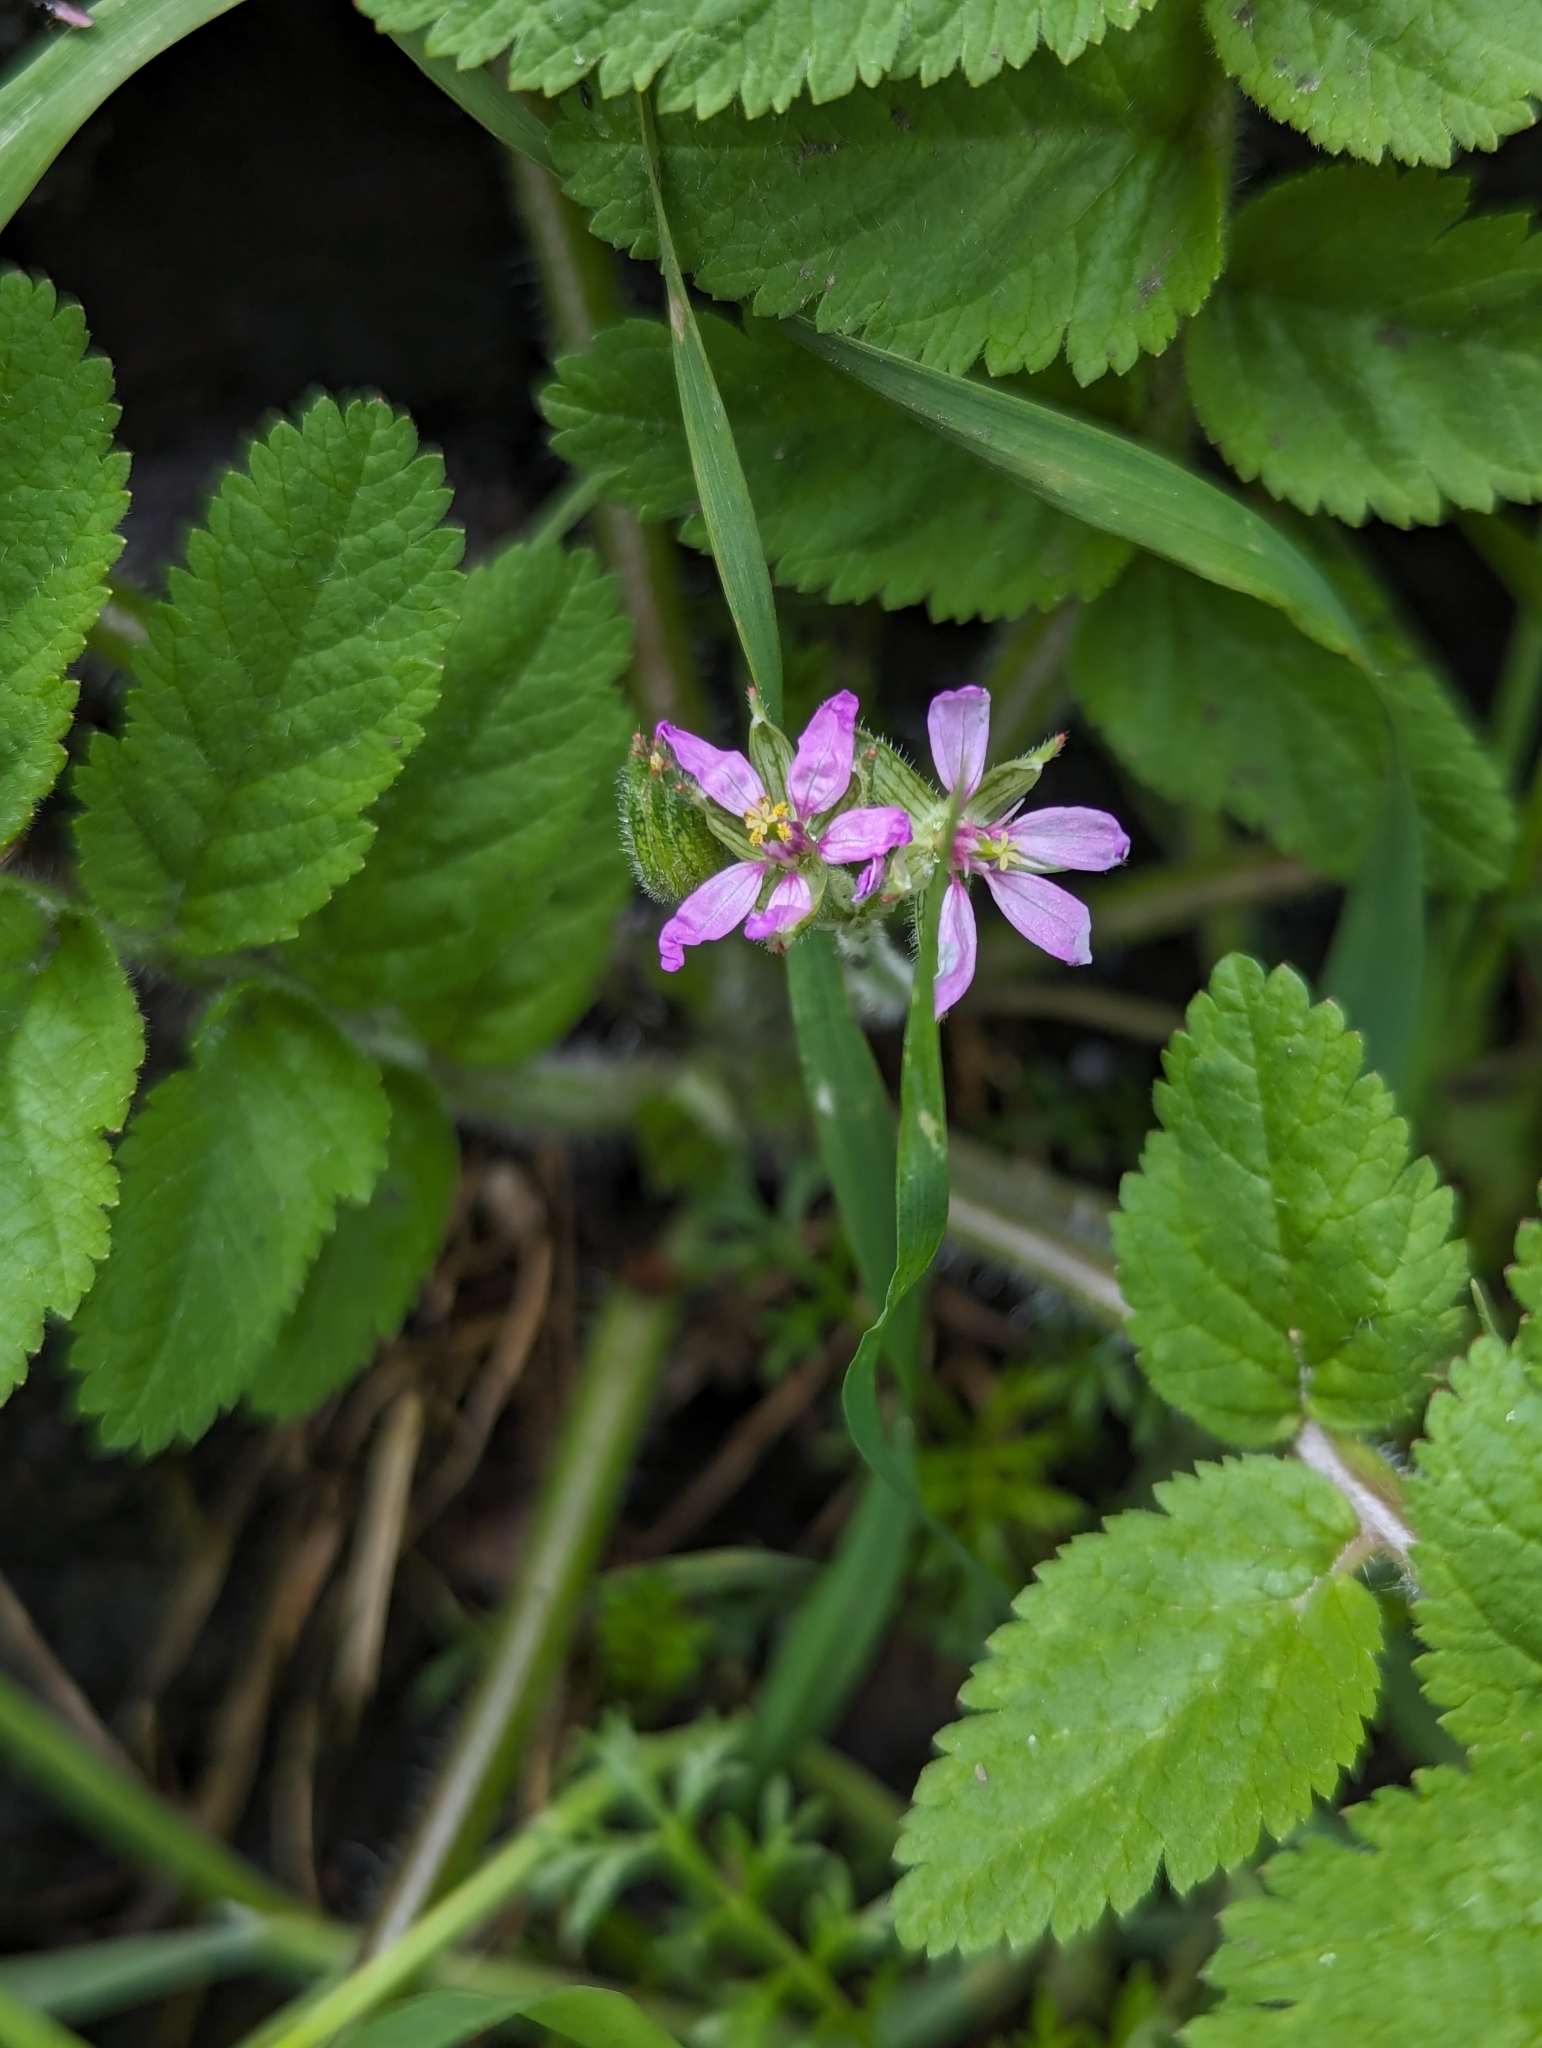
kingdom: Plantae
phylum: Tracheophyta
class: Magnoliopsida
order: Geraniales
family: Geraniaceae
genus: Erodium
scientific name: Erodium moschatum
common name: Musk stork's-bill
